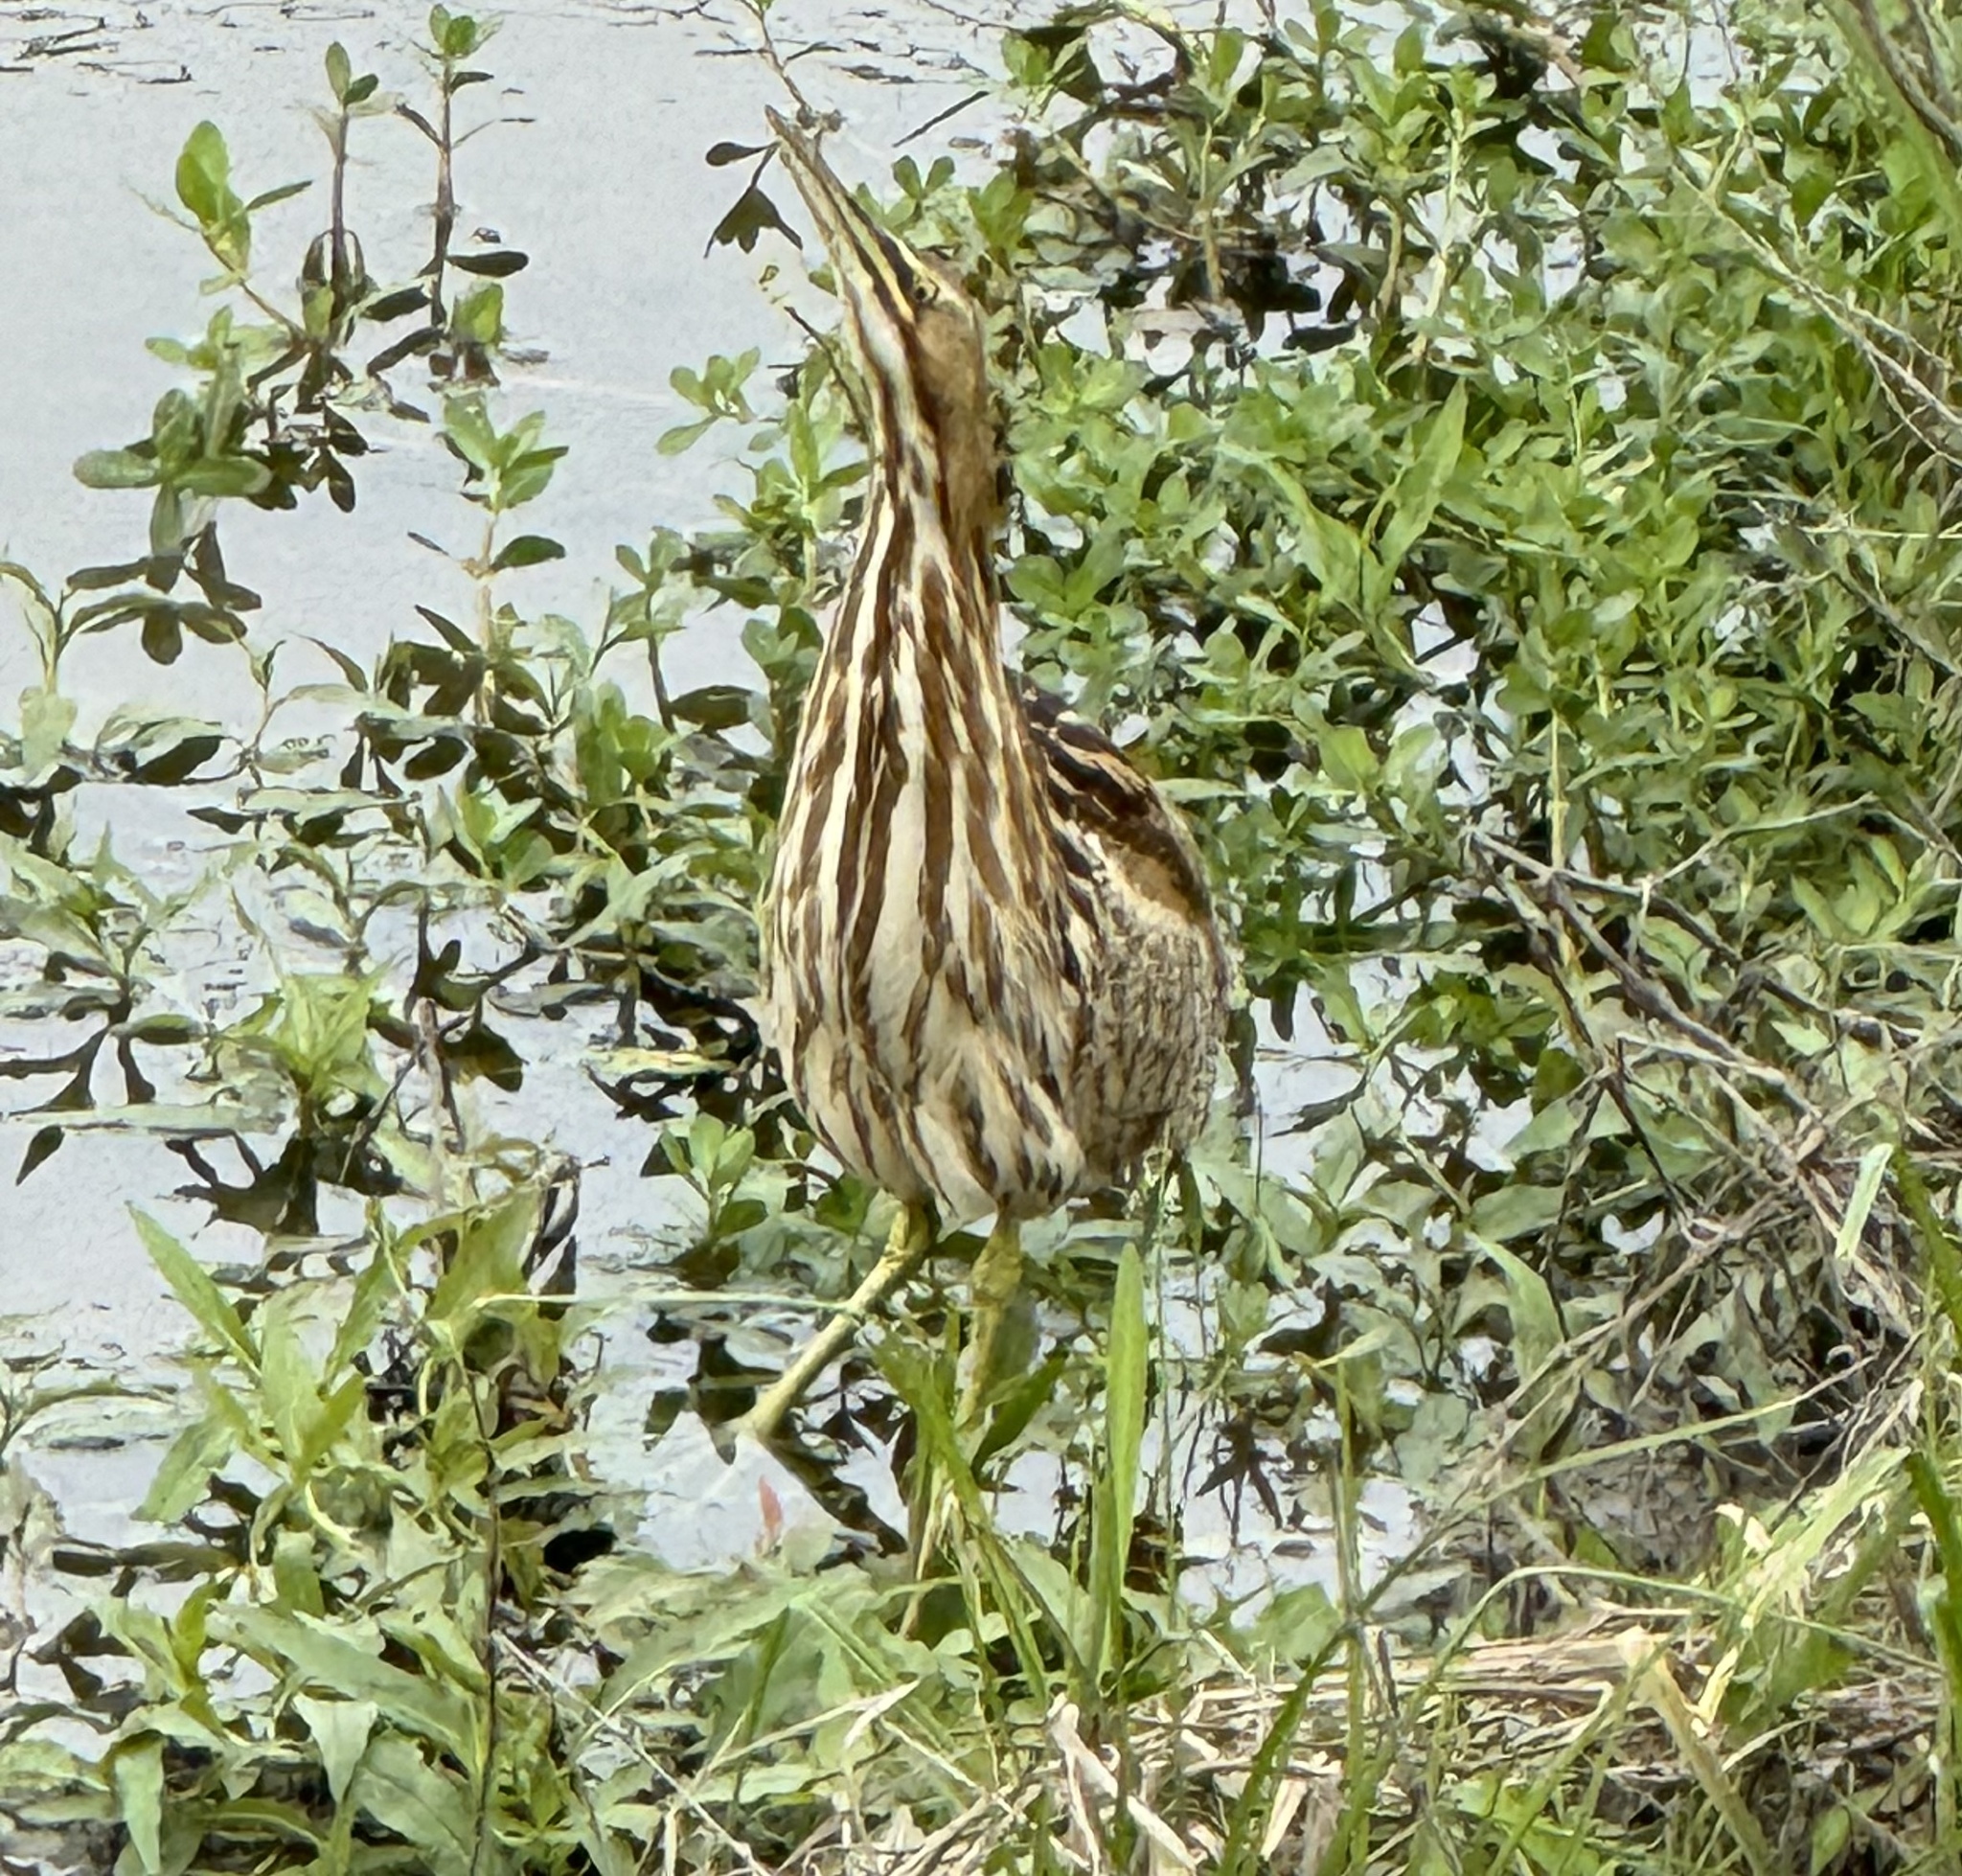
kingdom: Animalia
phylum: Chordata
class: Aves
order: Pelecaniformes
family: Ardeidae
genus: Botaurus
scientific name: Botaurus lentiginosus
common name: American bittern
